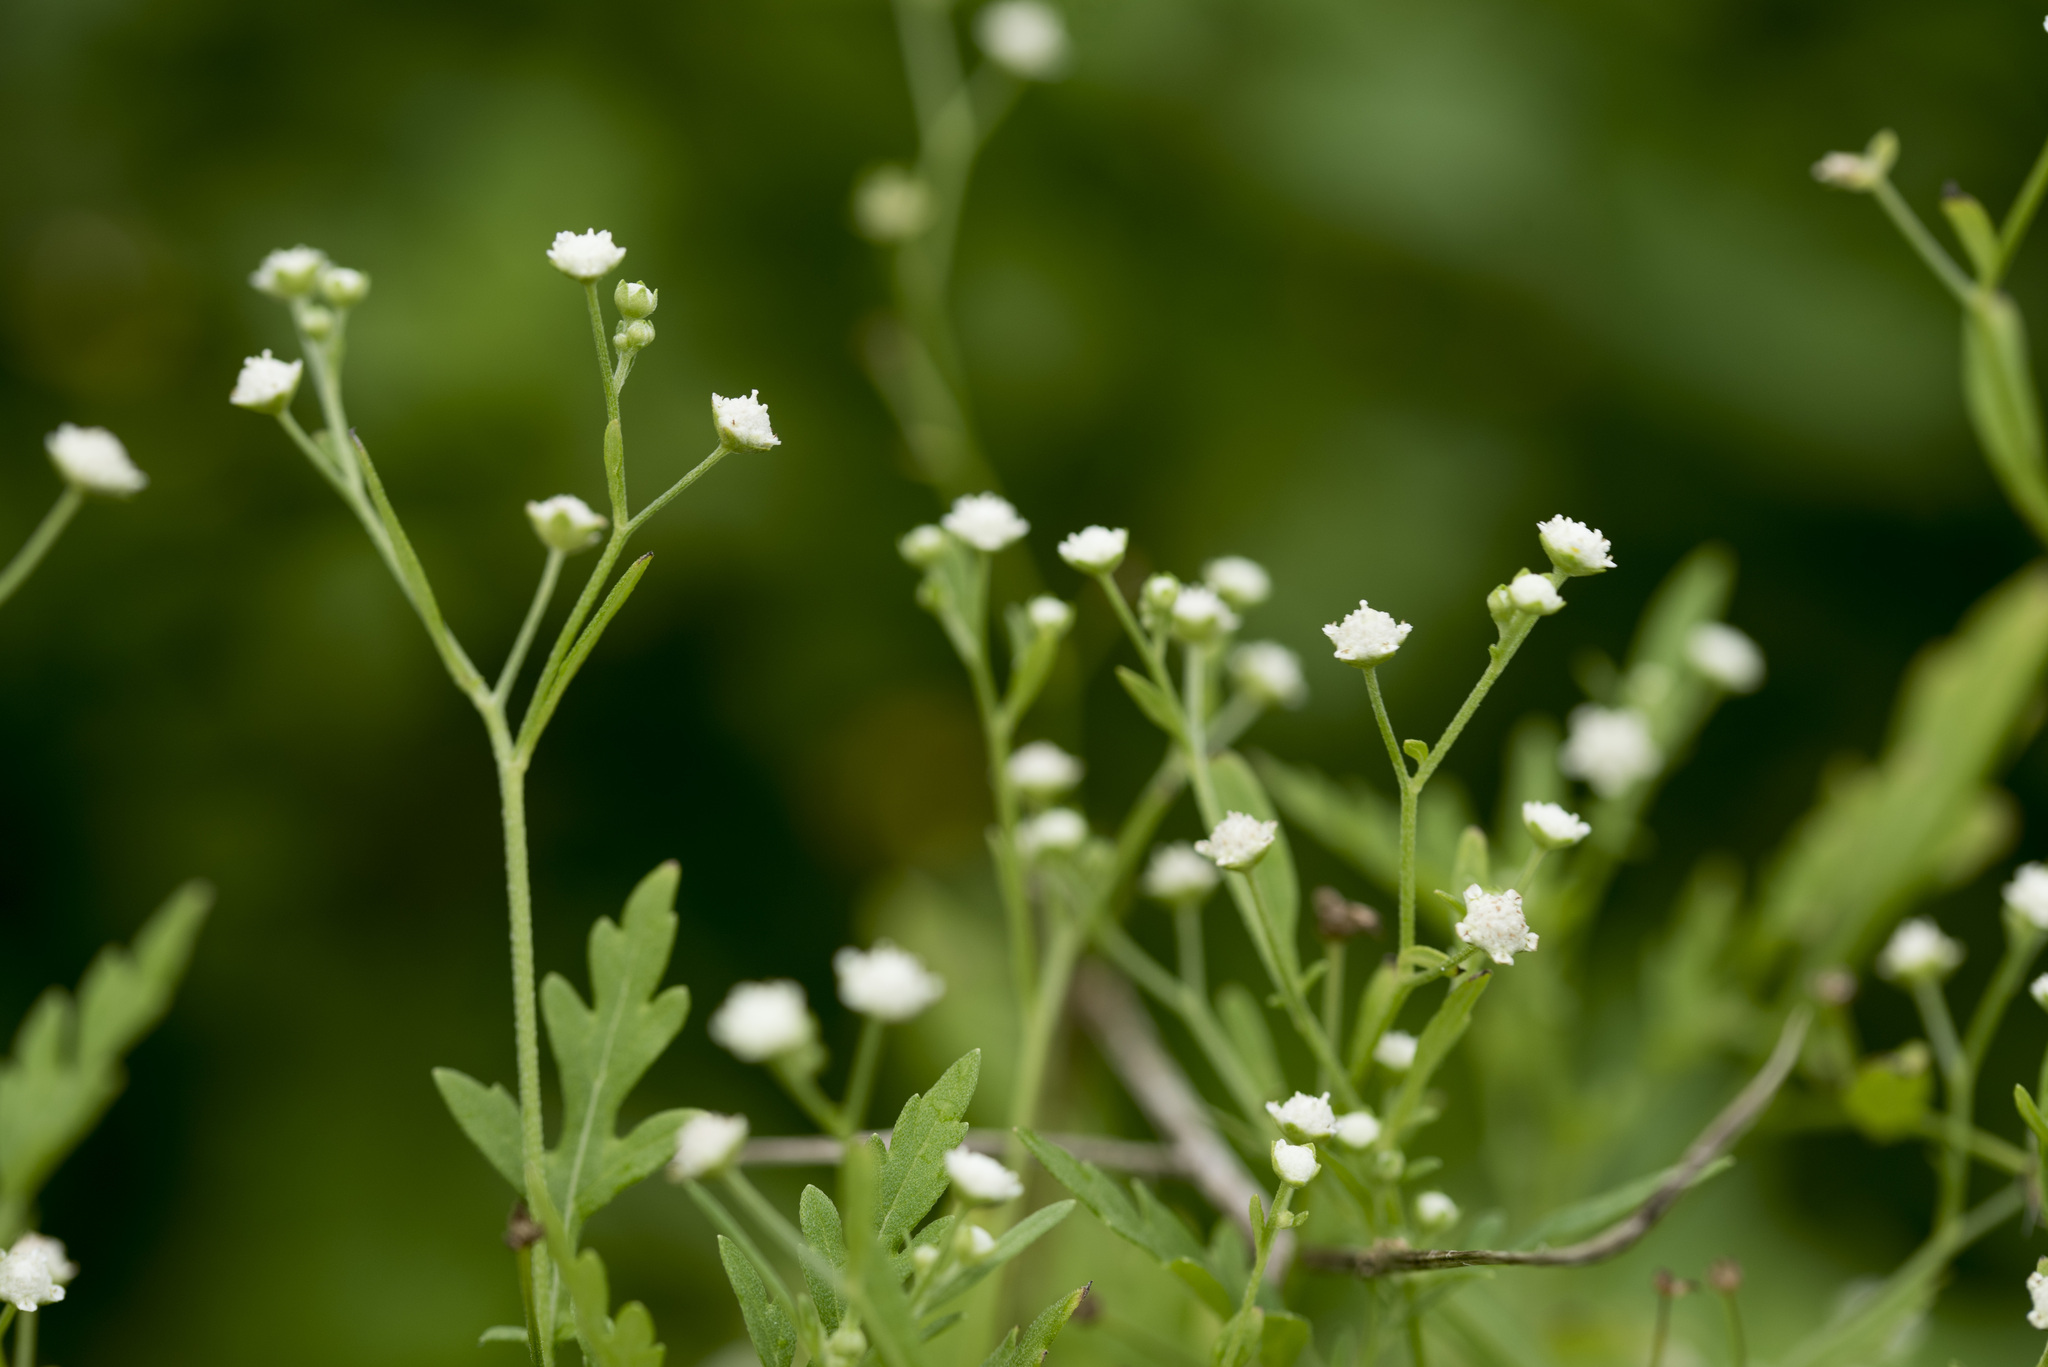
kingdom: Plantae
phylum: Tracheophyta
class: Magnoliopsida
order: Asterales
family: Asteraceae
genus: Parthenium
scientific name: Parthenium hysterophorus
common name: Santa maria feverfew
